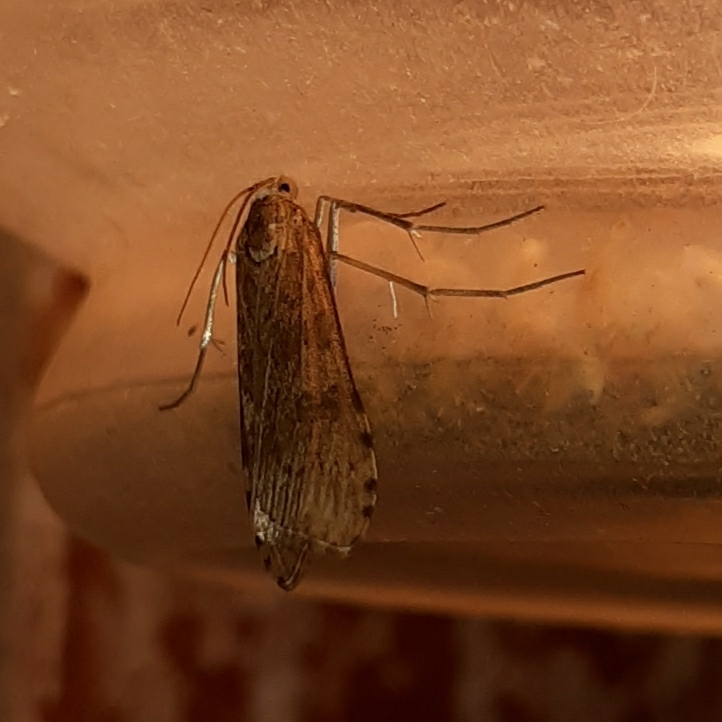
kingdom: Animalia
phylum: Arthropoda
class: Insecta
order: Lepidoptera
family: Crambidae
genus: Nomophila
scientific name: Nomophila nearctica
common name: American rush veneer
